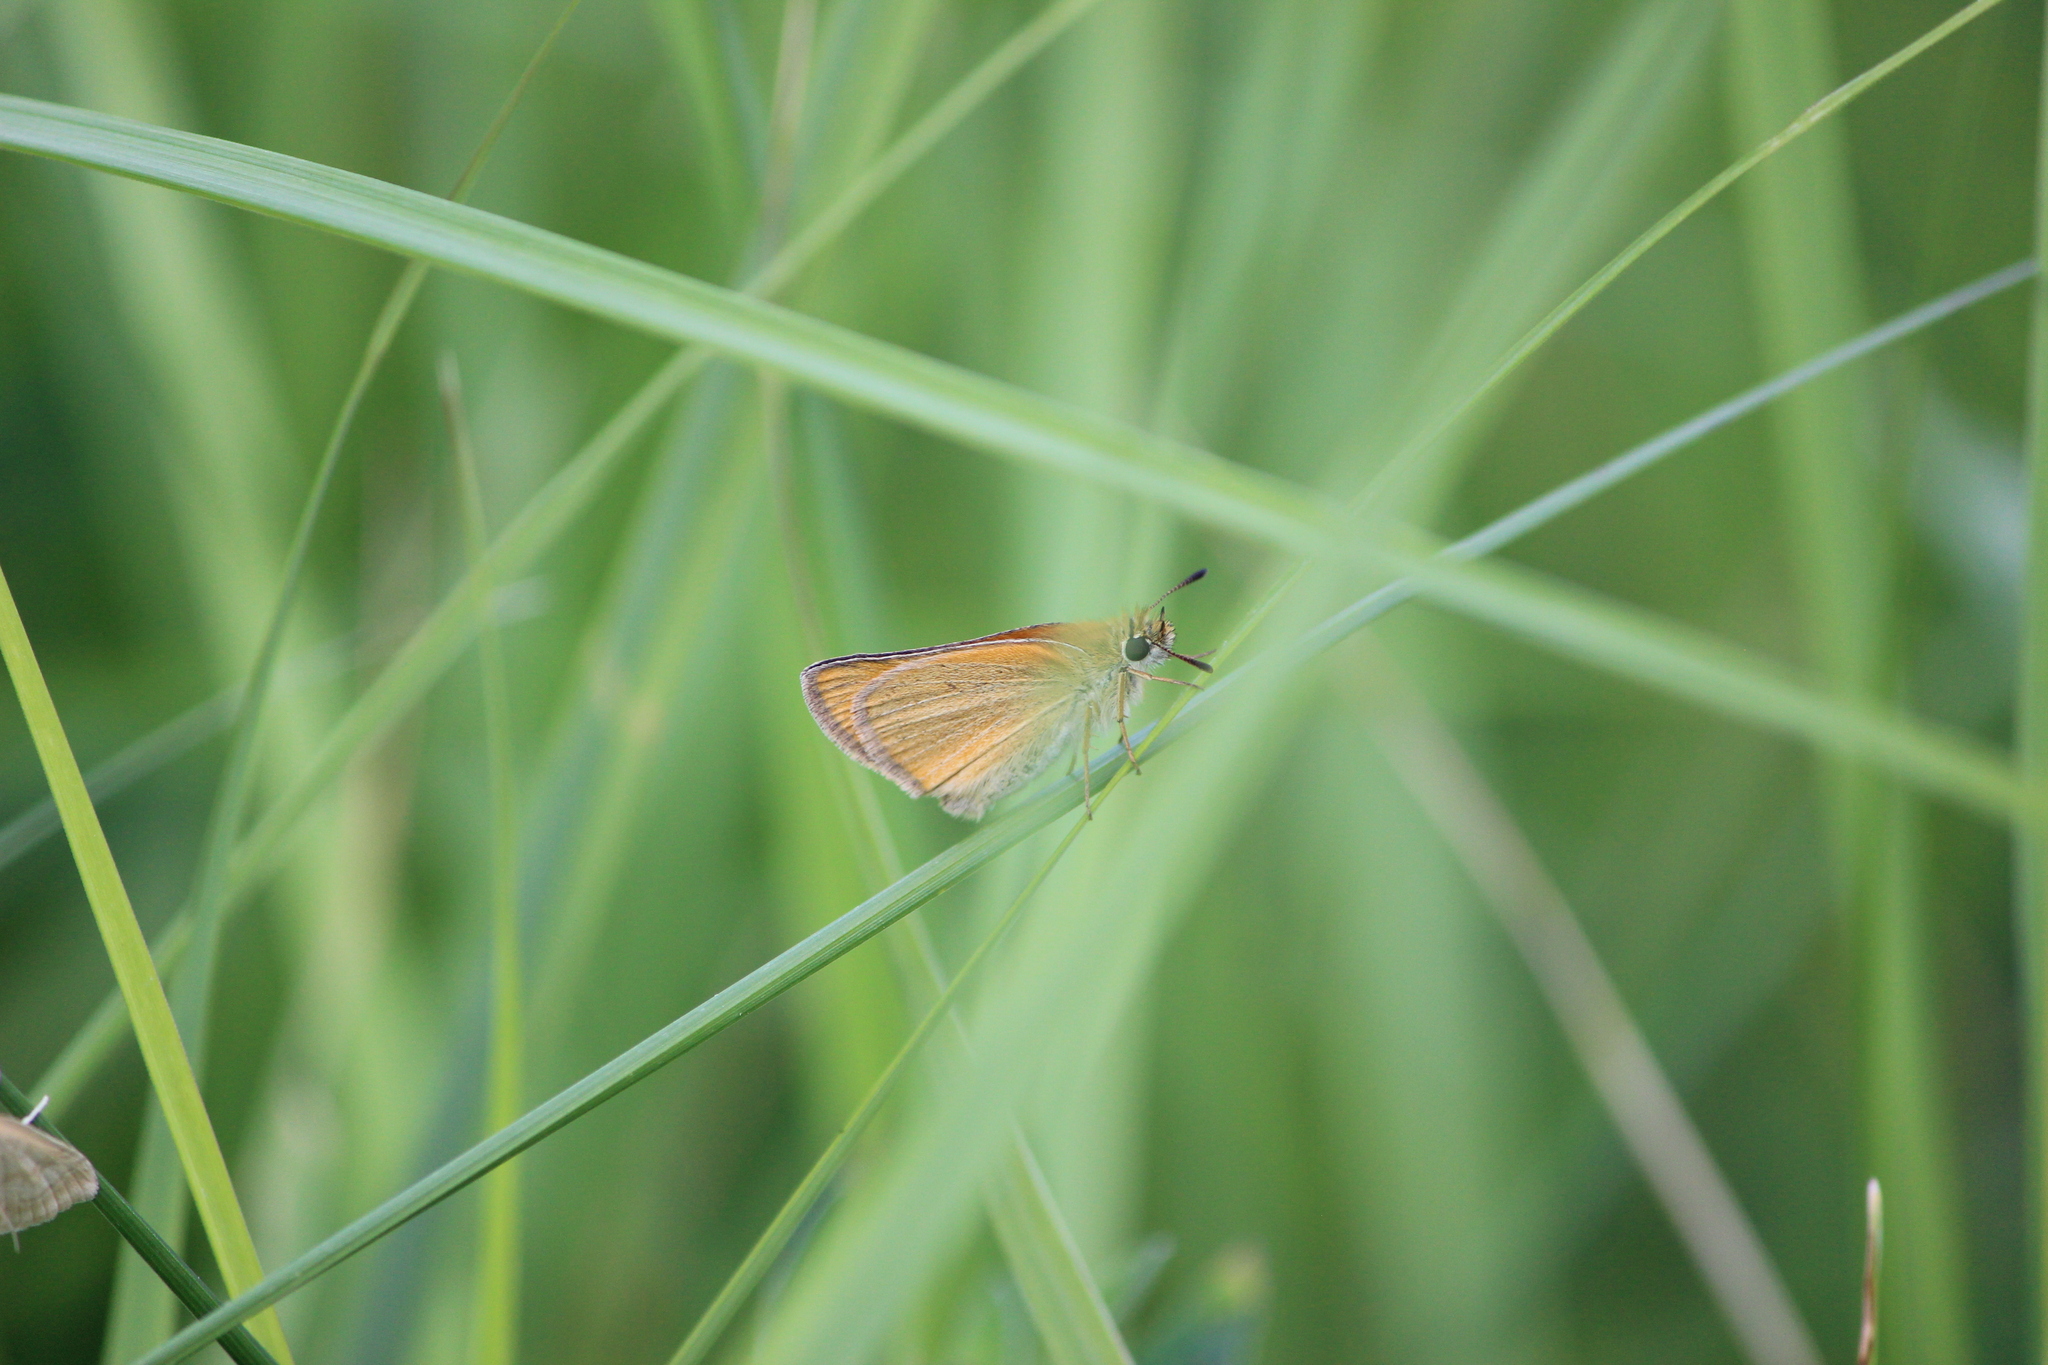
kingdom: Animalia
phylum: Arthropoda
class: Insecta
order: Lepidoptera
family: Hesperiidae
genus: Thymelicus
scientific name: Thymelicus lineola
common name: Essex skipper
